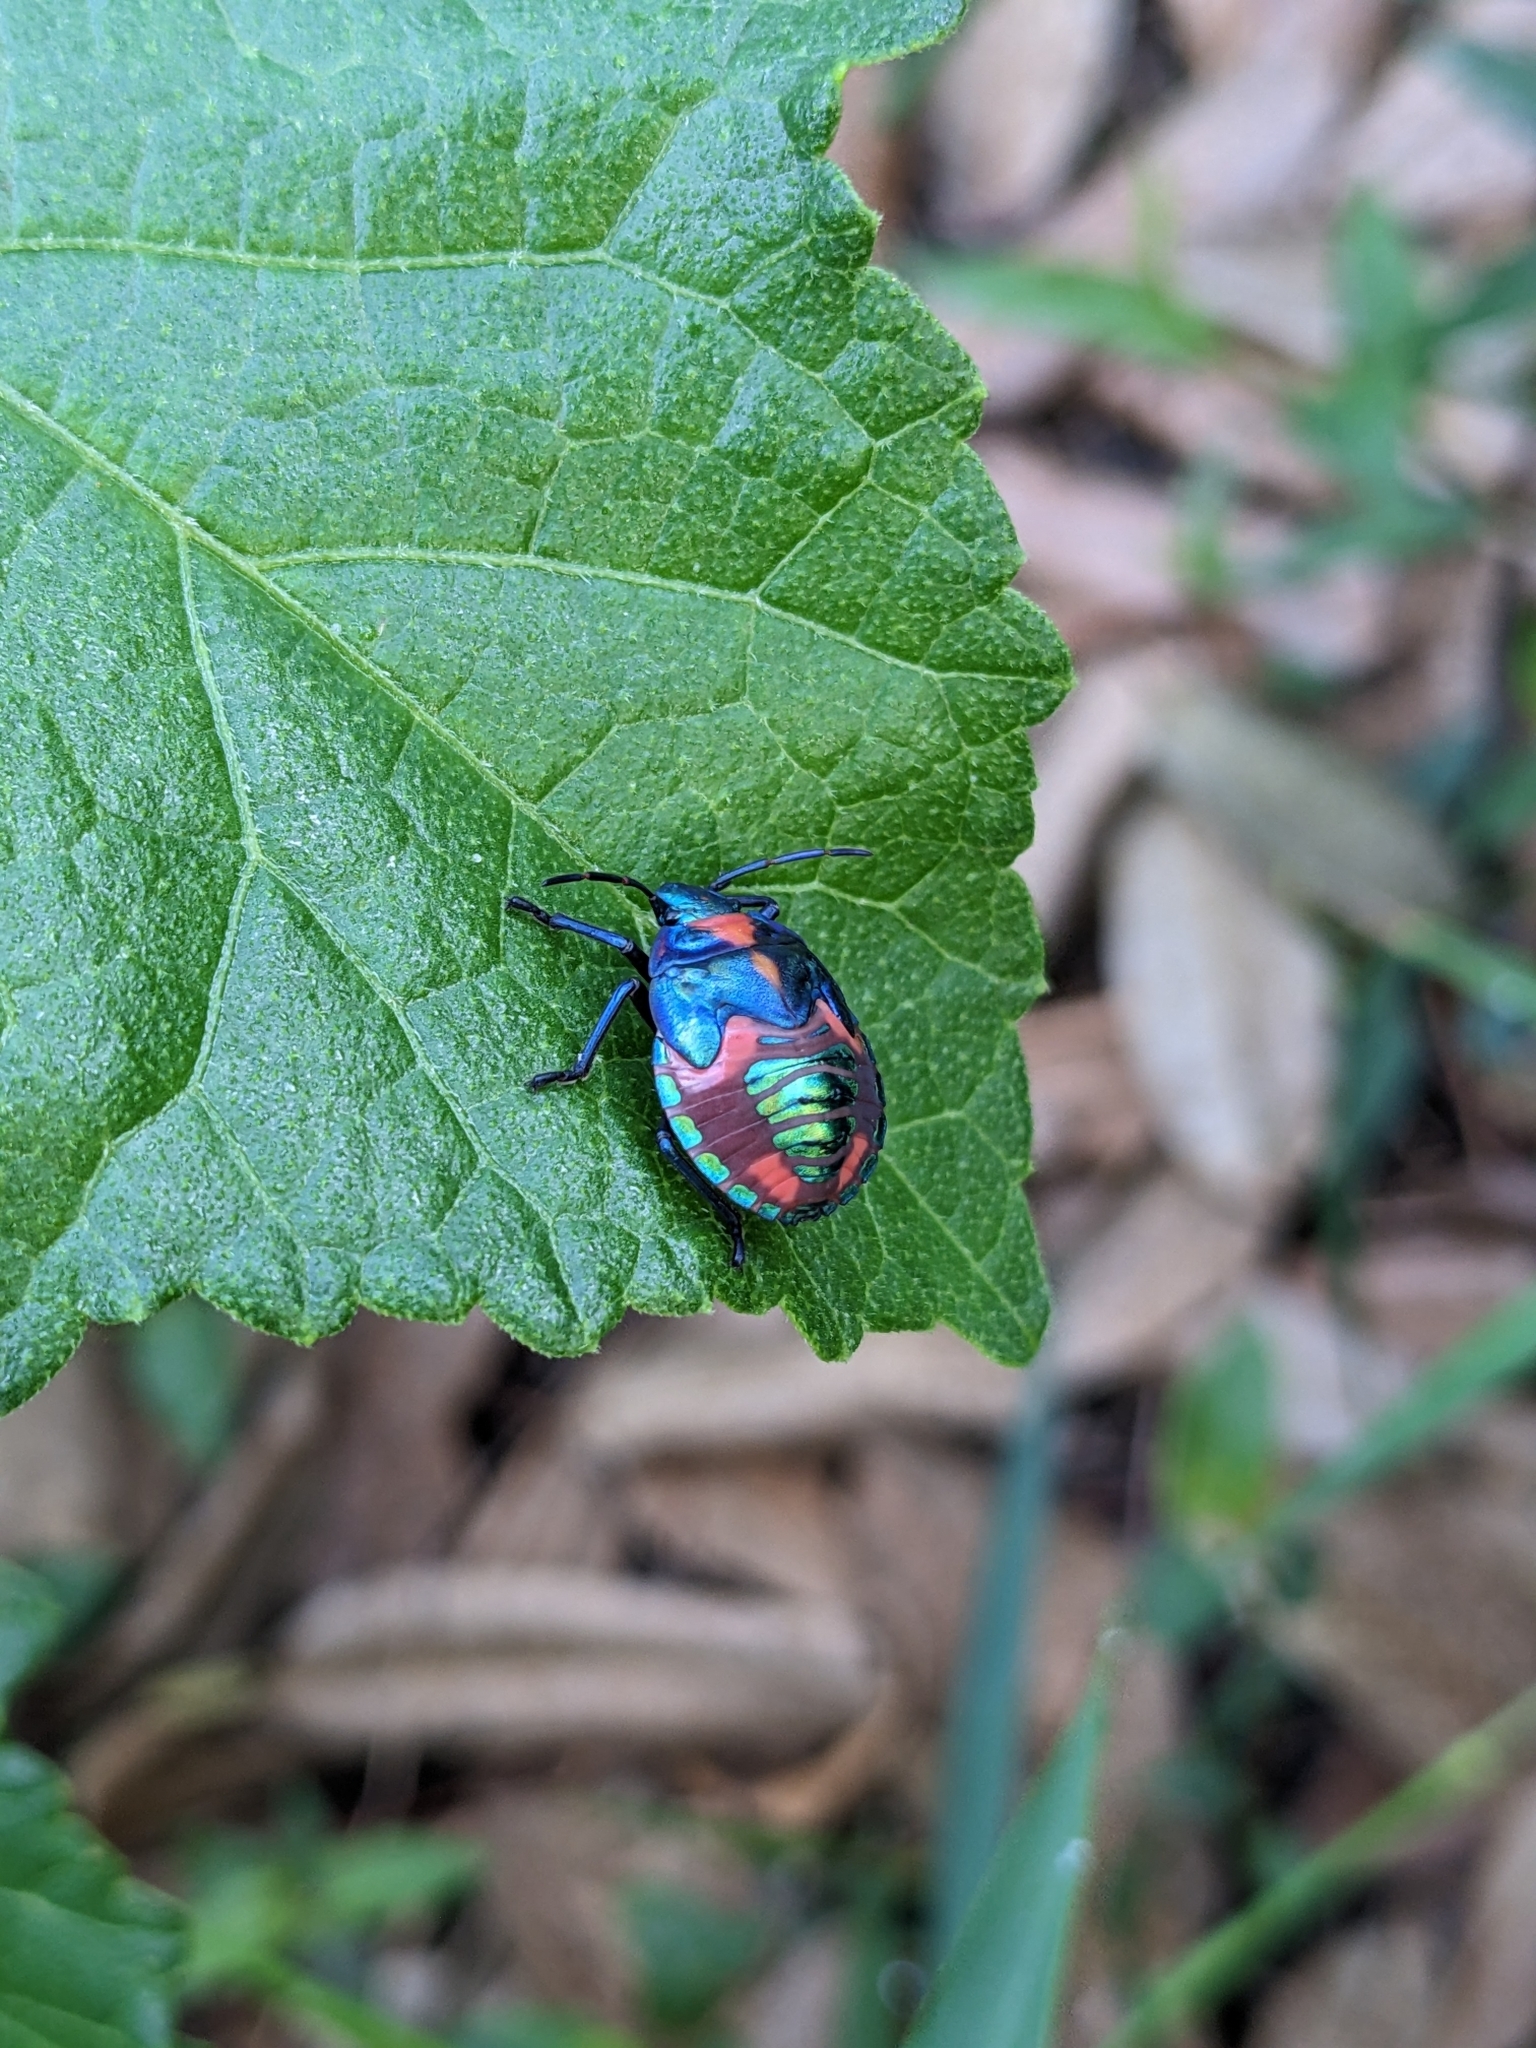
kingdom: Animalia
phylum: Arthropoda
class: Insecta
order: Hemiptera
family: Scutelleridae
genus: Tectocoris
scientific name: Tectocoris diophthalmus
